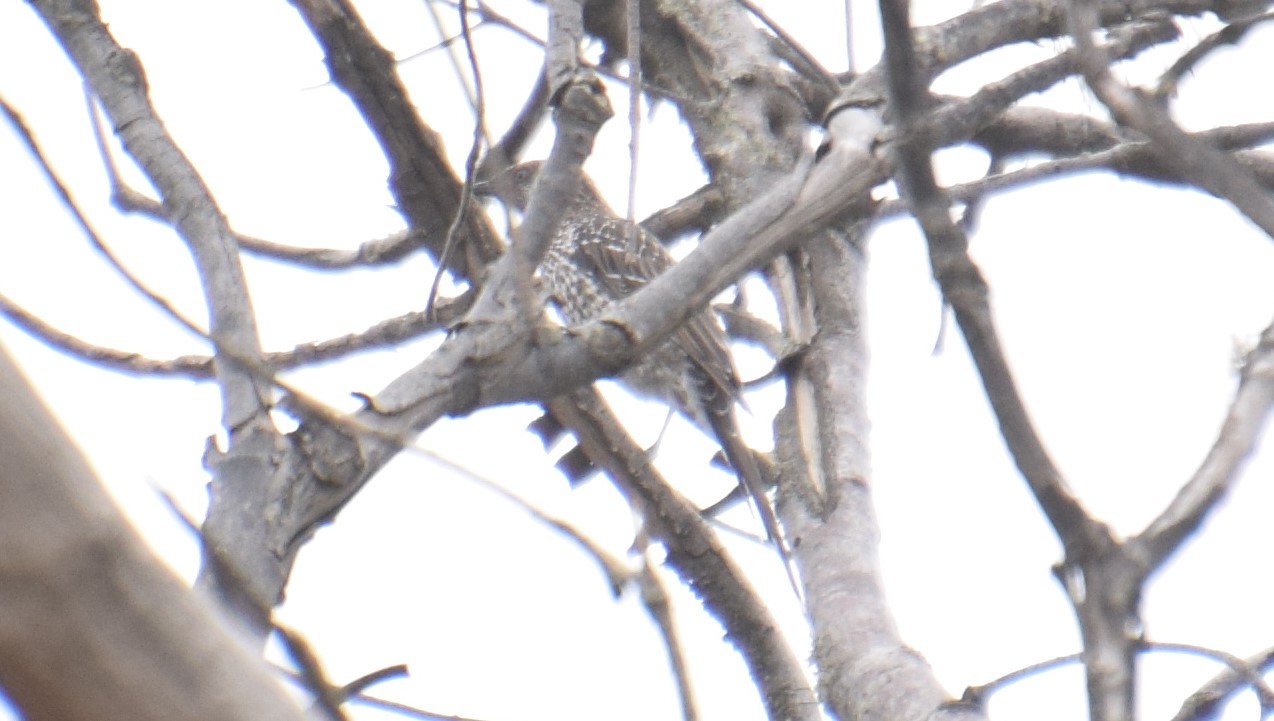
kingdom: Animalia
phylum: Chordata
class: Aves
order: Passeriformes
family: Meliphagidae
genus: Anthochaera
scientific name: Anthochaera chrysoptera
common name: Little wattlebird
